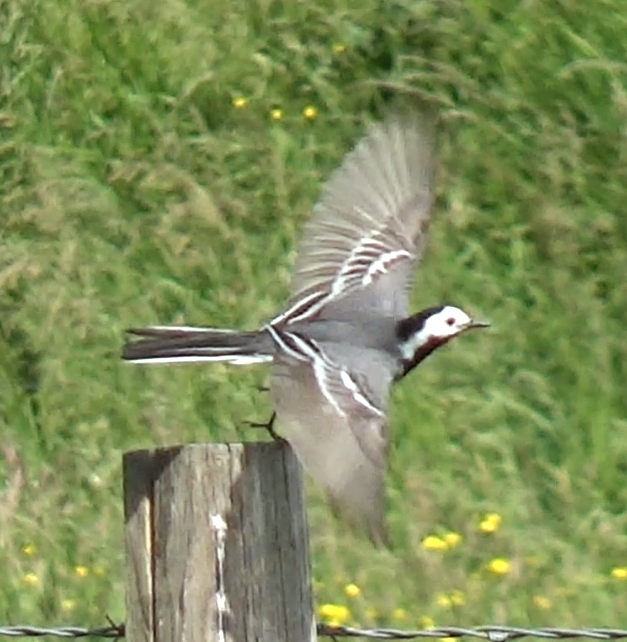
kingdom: Animalia
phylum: Chordata
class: Aves
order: Passeriformes
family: Motacillidae
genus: Motacilla
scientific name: Motacilla alba
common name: White wagtail
